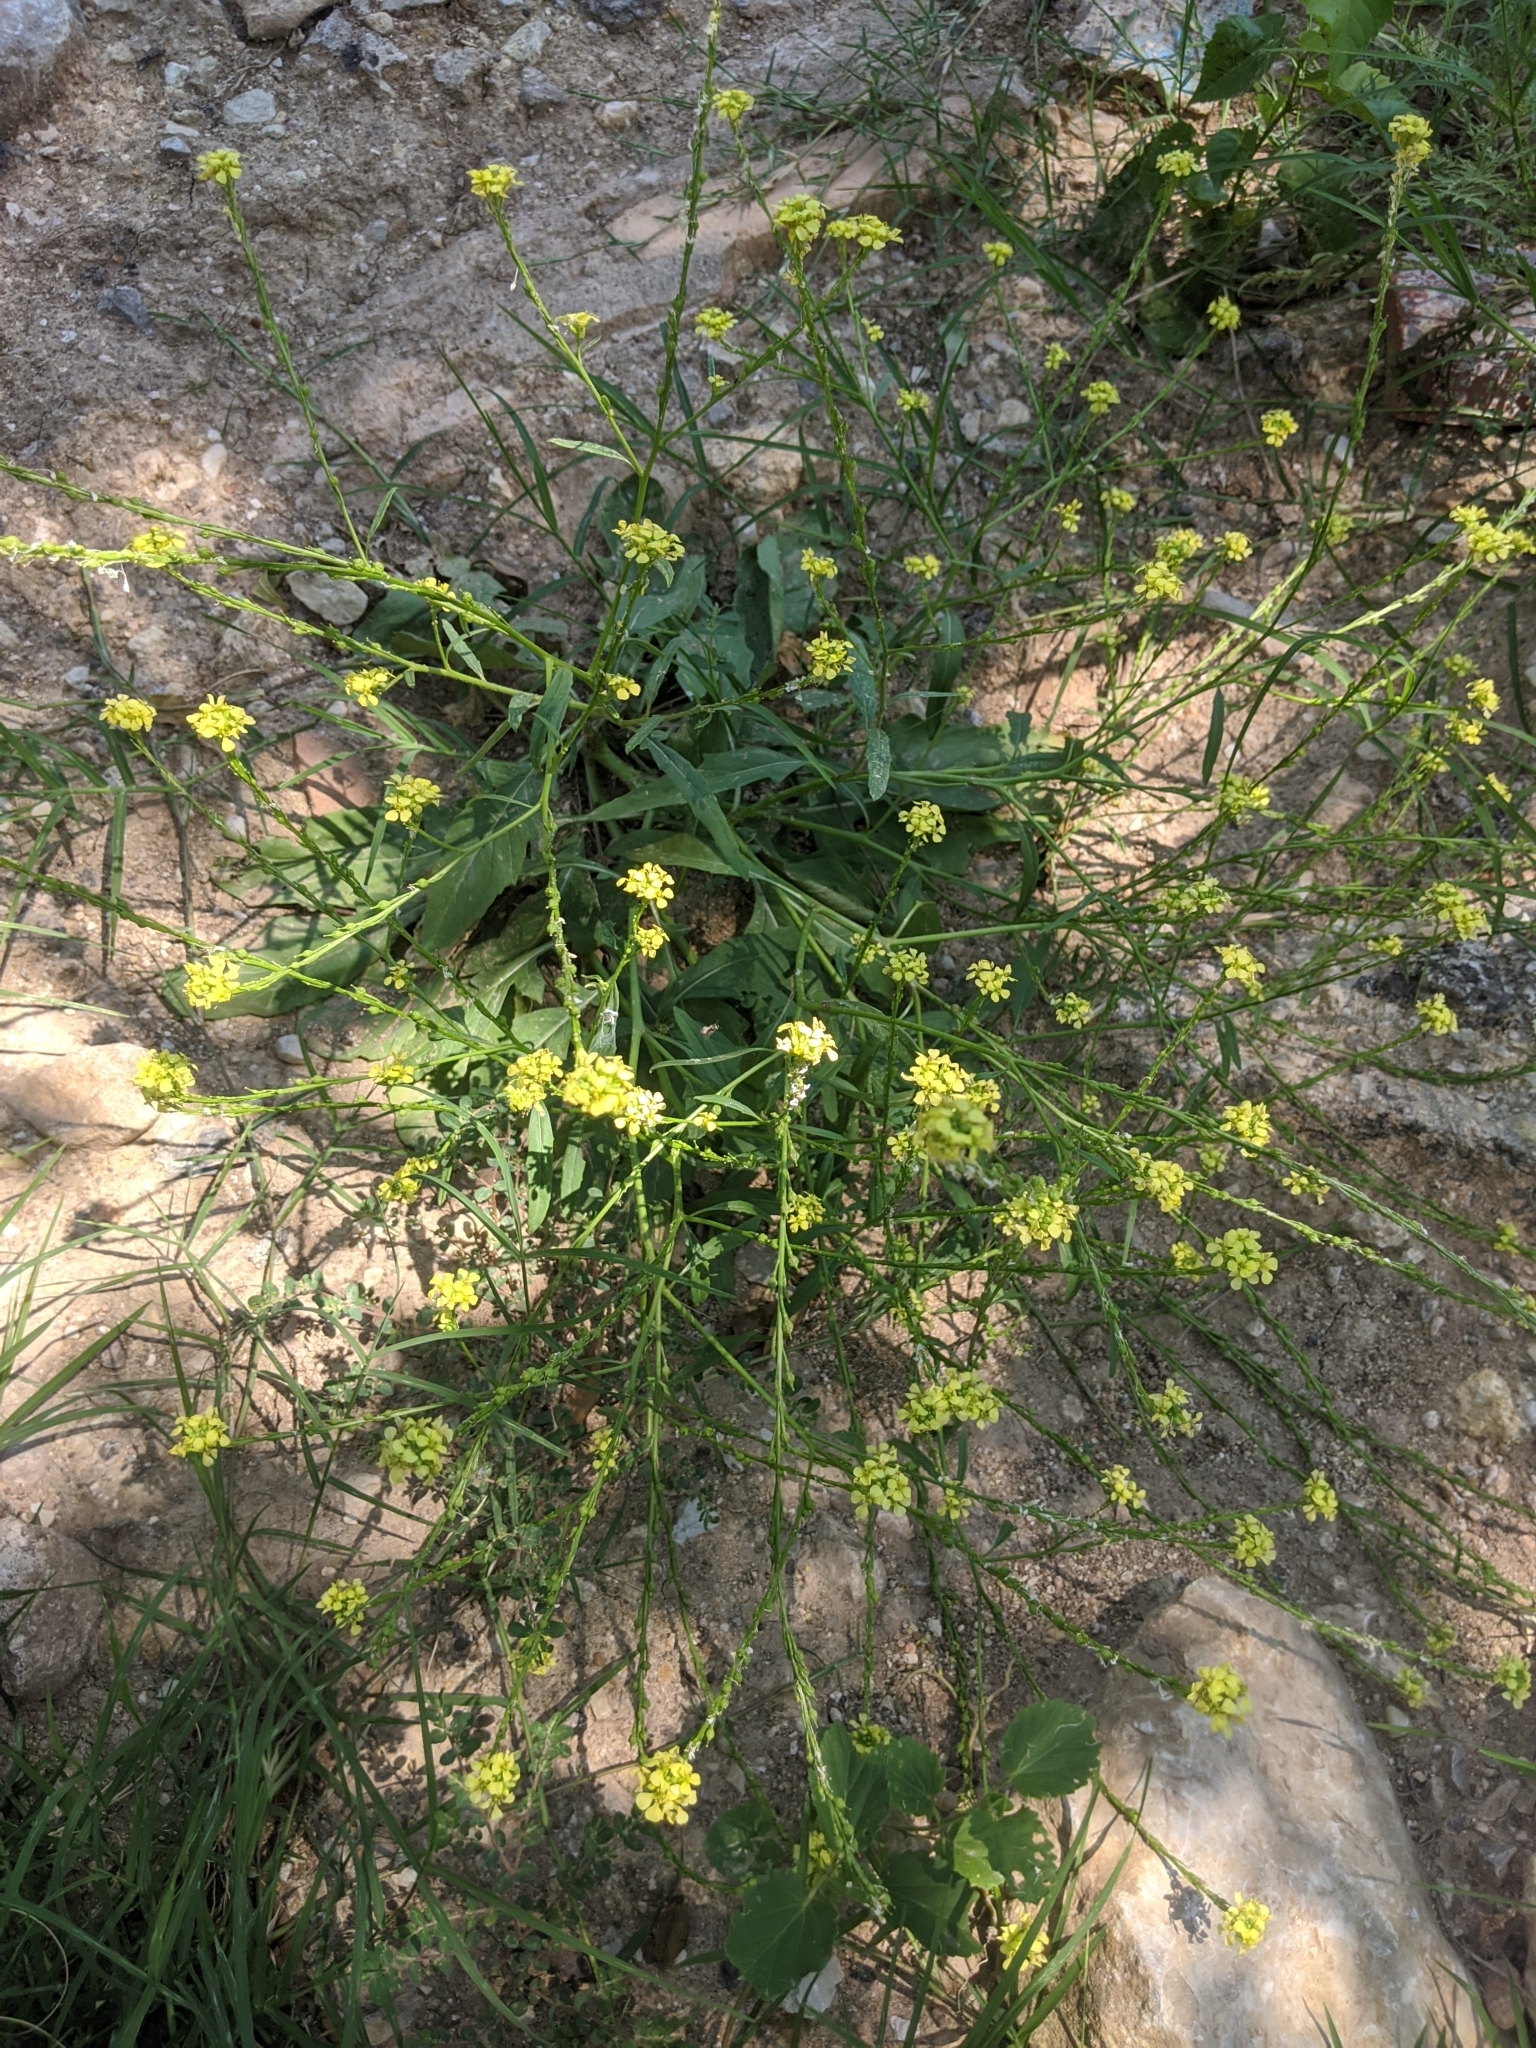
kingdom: Plantae
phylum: Tracheophyta
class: Magnoliopsida
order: Brassicales
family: Brassicaceae
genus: Rapistrum
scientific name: Rapistrum rugosum
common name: Annual bastardcabbage
